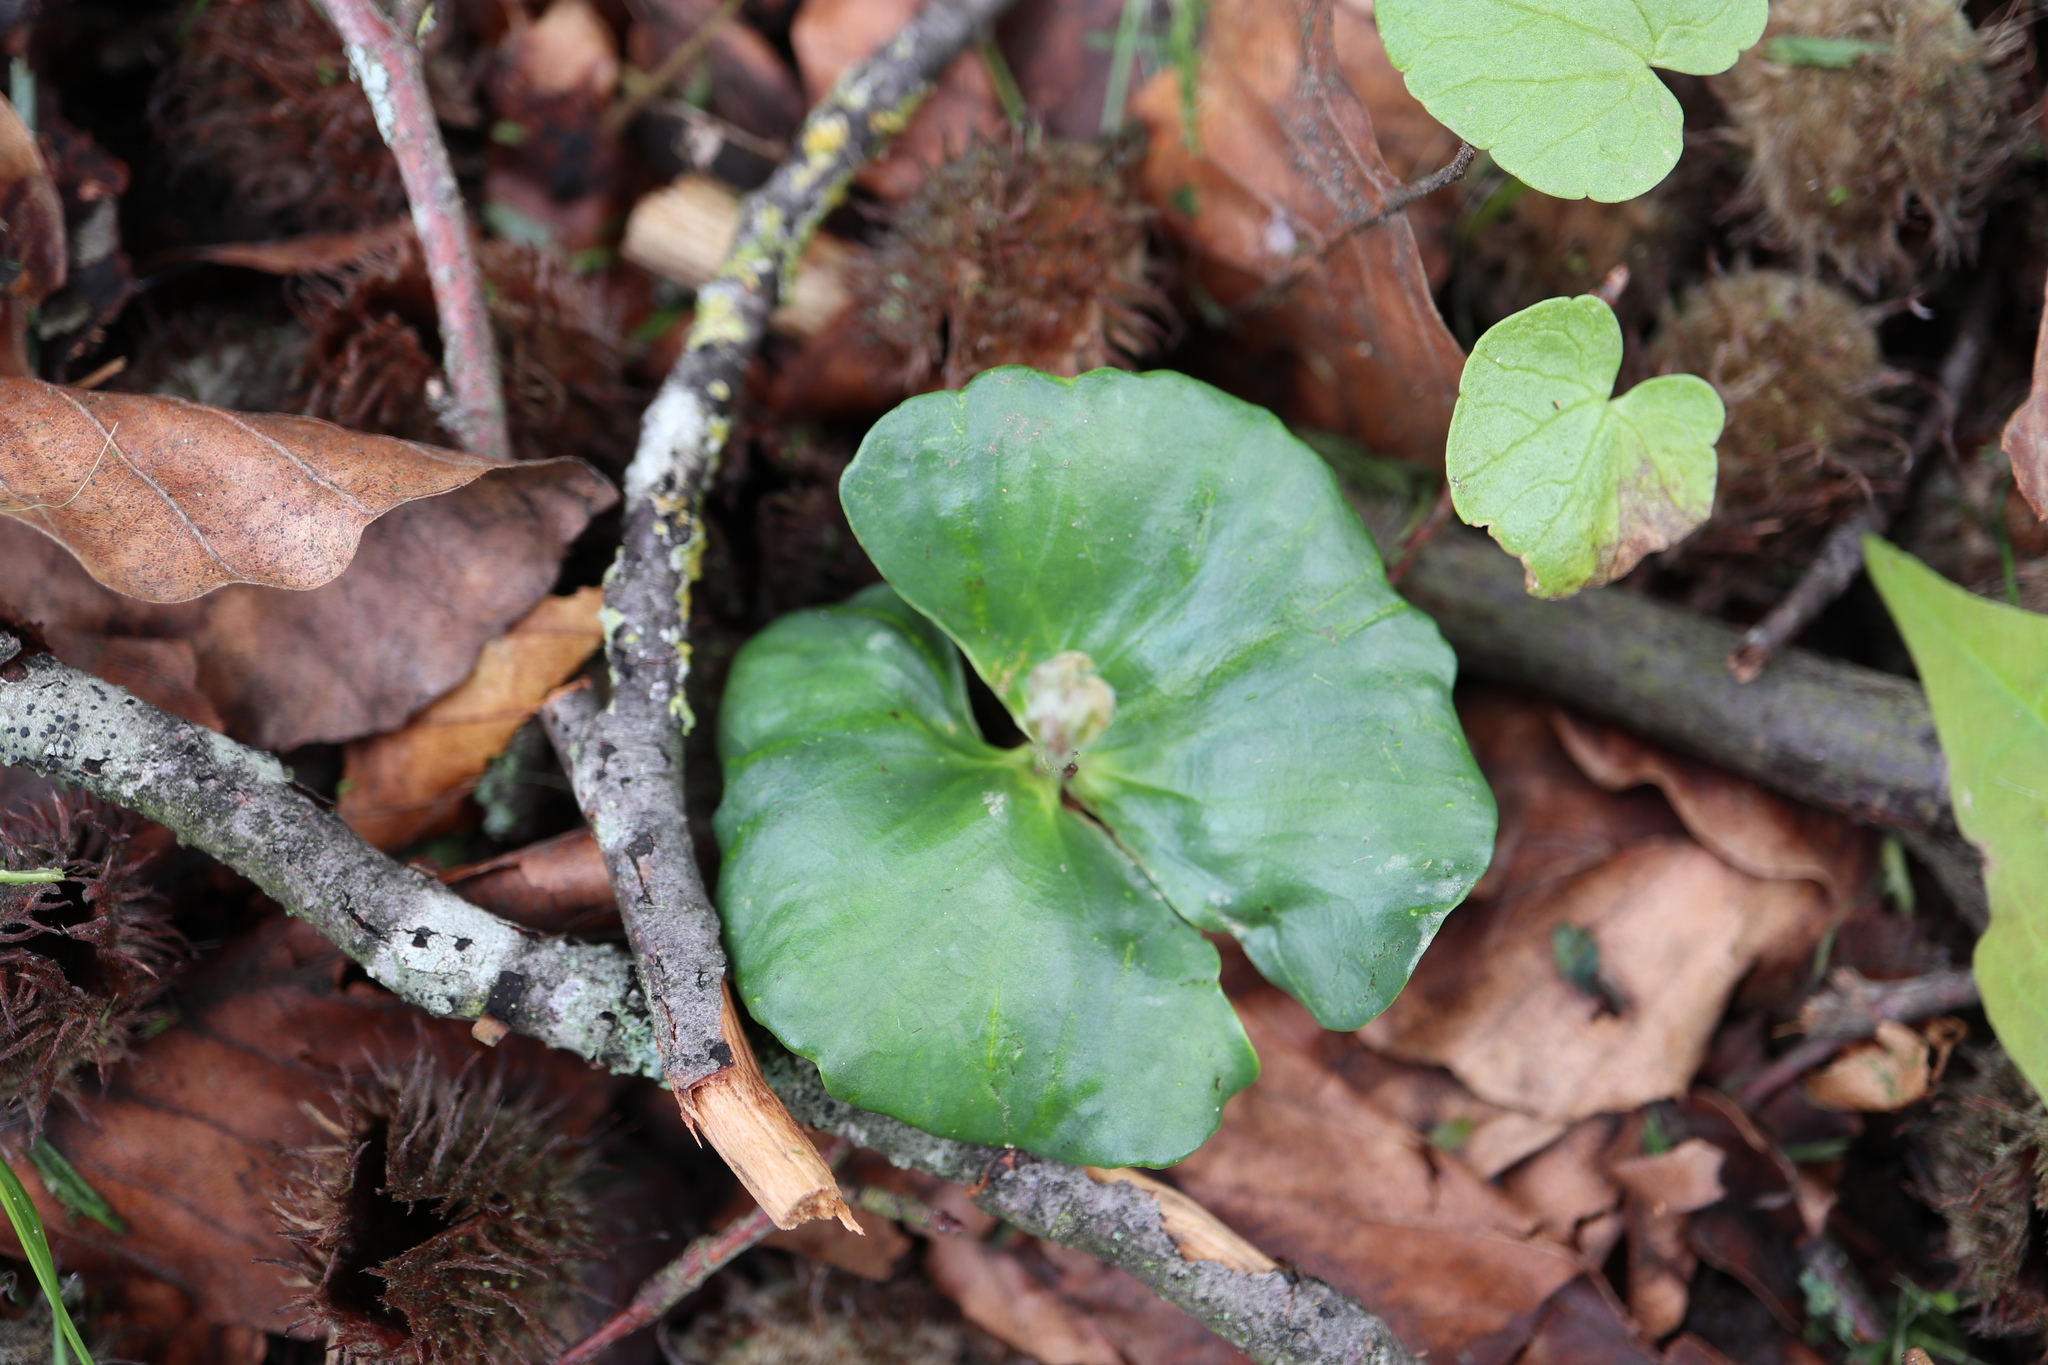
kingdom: Plantae
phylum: Tracheophyta
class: Magnoliopsida
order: Fagales
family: Fagaceae
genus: Fagus
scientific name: Fagus sylvatica
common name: Beech
